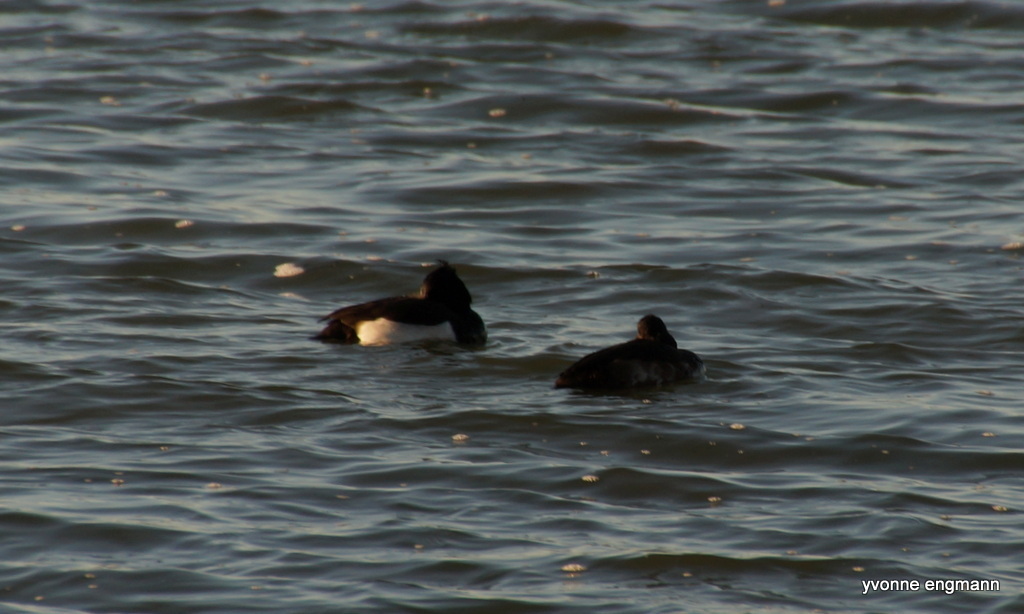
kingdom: Animalia
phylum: Chordata
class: Aves
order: Anseriformes
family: Anatidae
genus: Aythya
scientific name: Aythya fuligula
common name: Tufted duck
